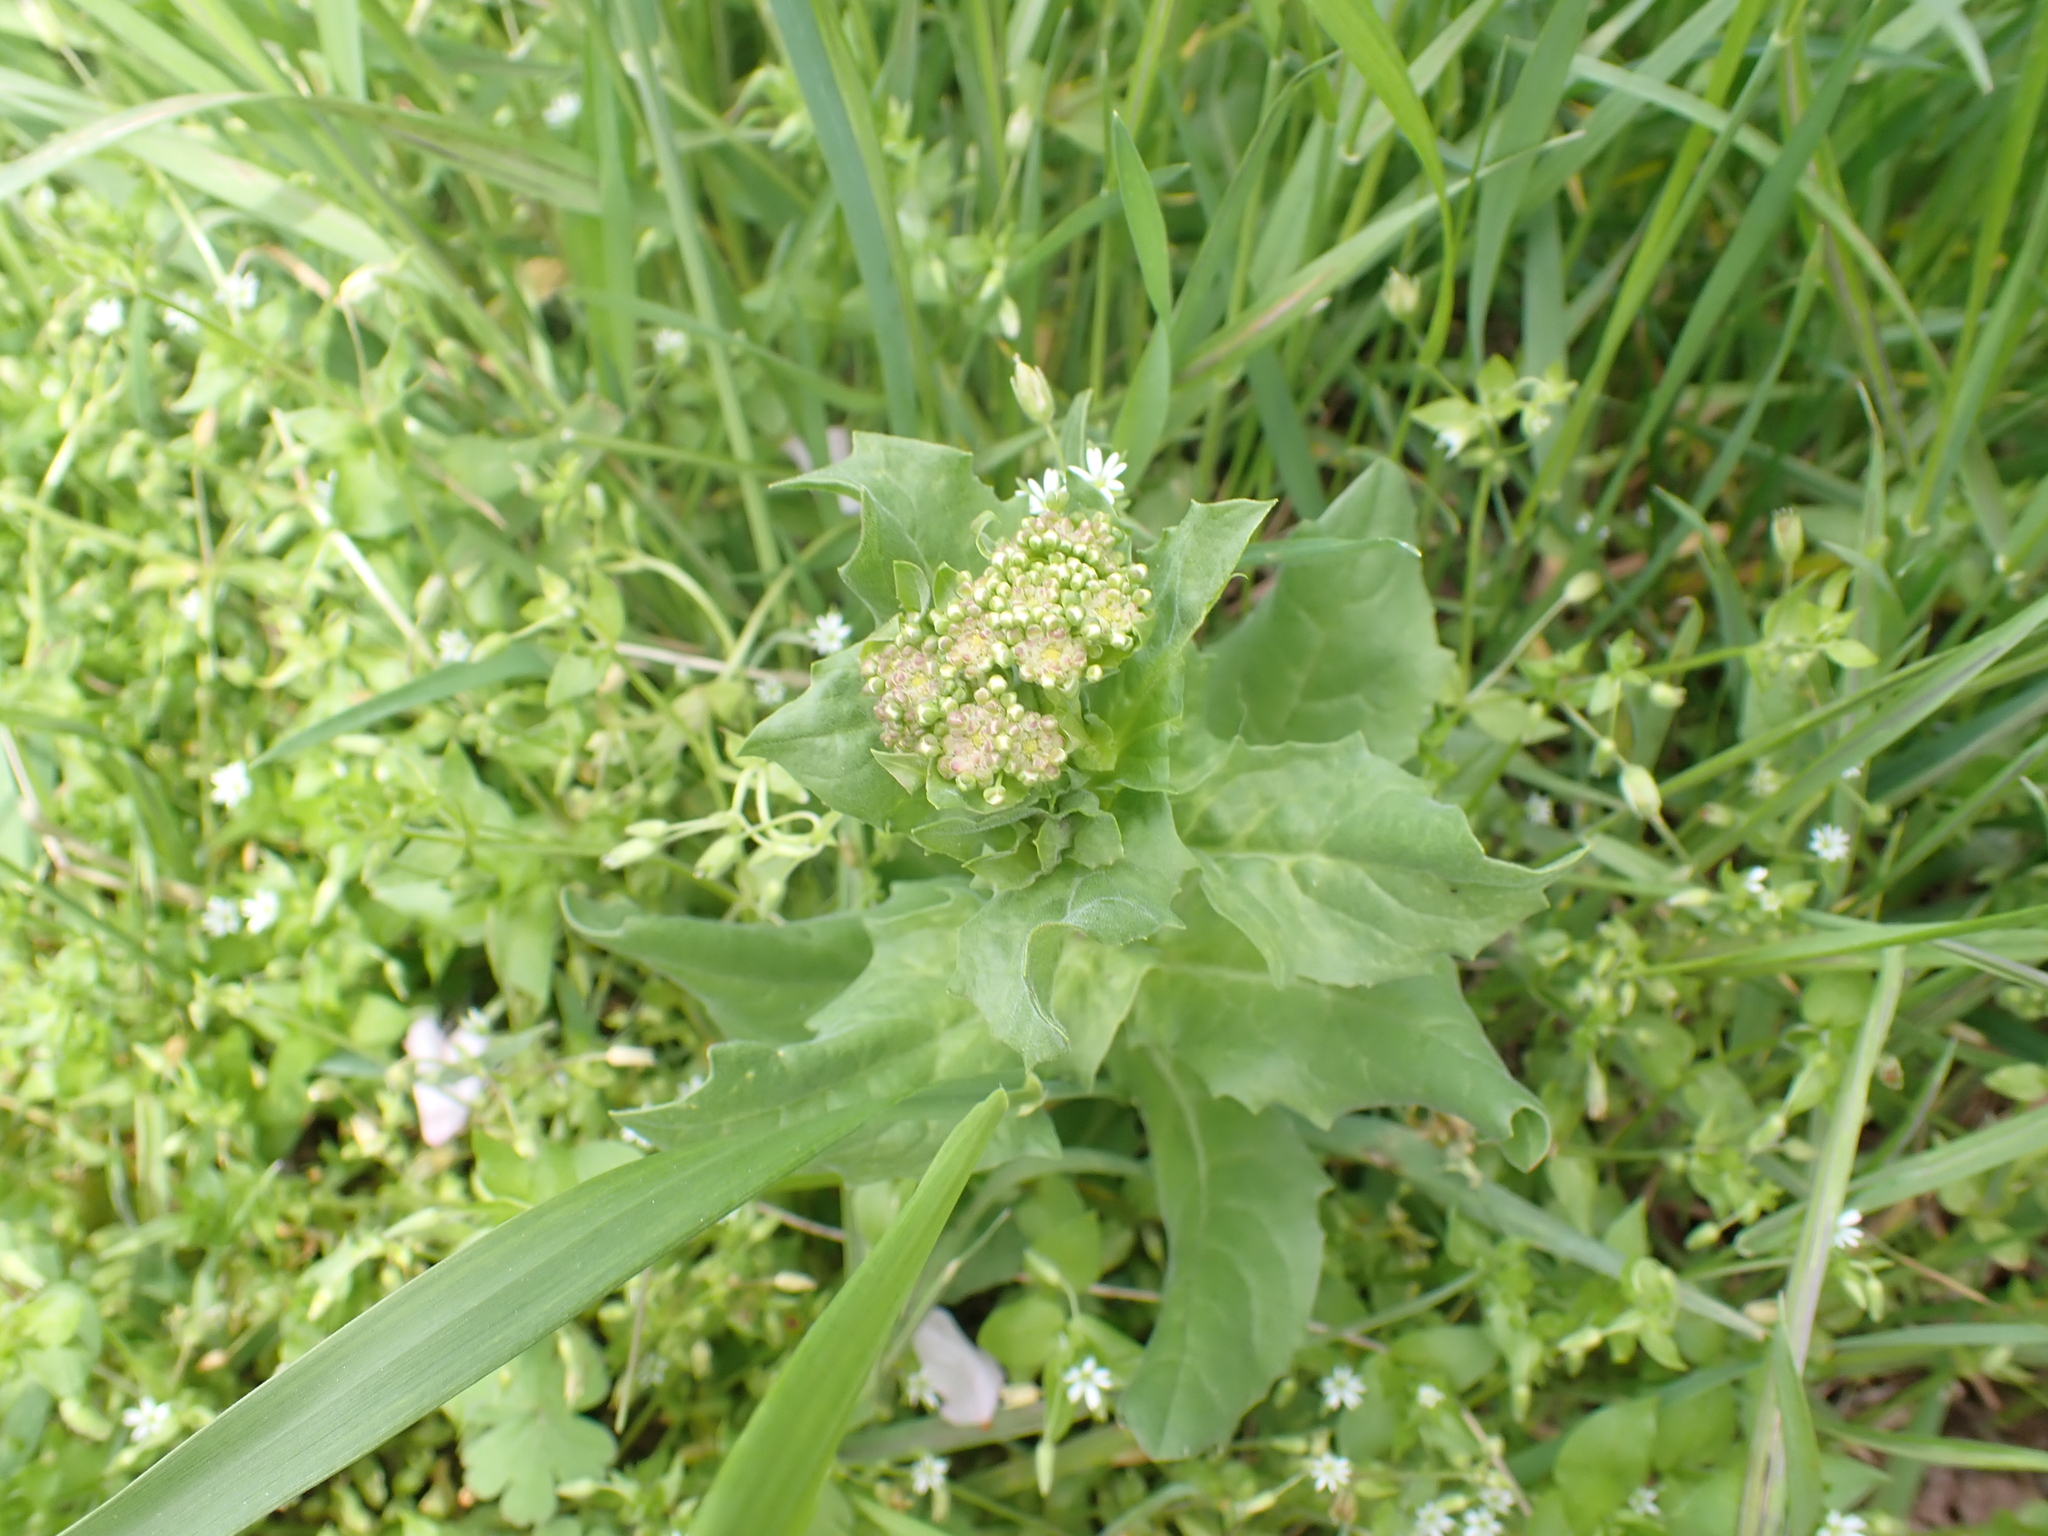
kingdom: Plantae
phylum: Tracheophyta
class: Magnoliopsida
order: Brassicales
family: Brassicaceae
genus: Lepidium
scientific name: Lepidium draba
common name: Hoary cress
